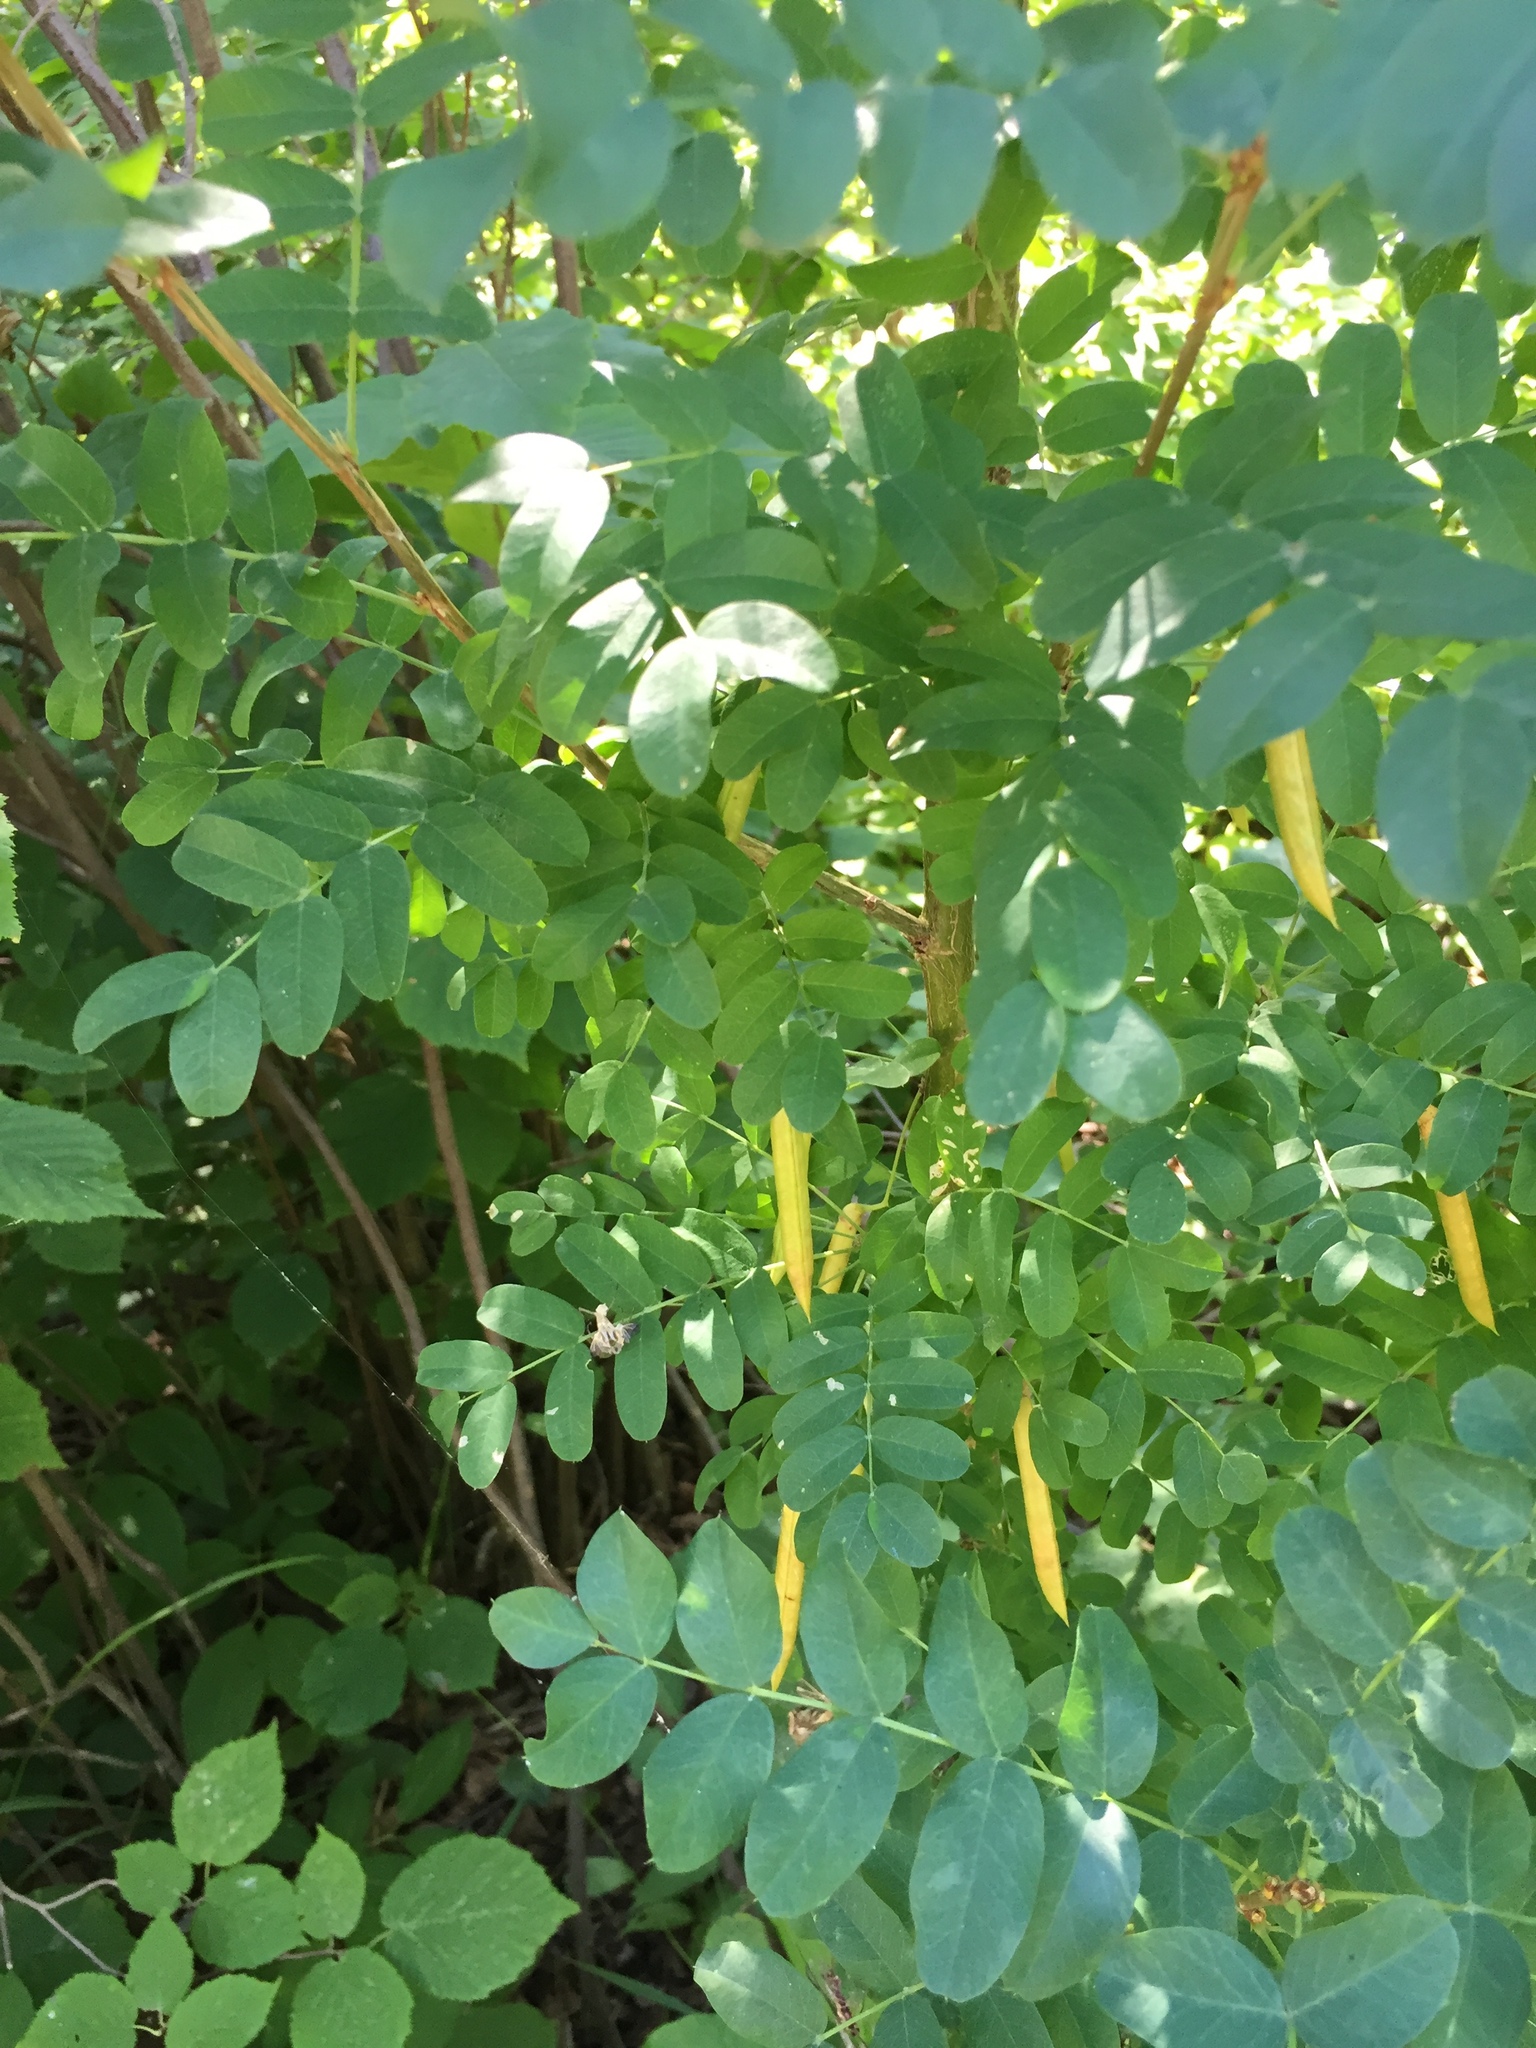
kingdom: Plantae
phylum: Tracheophyta
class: Magnoliopsida
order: Fabales
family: Fabaceae
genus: Caragana
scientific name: Caragana arborescens
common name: Siberian peashrub
